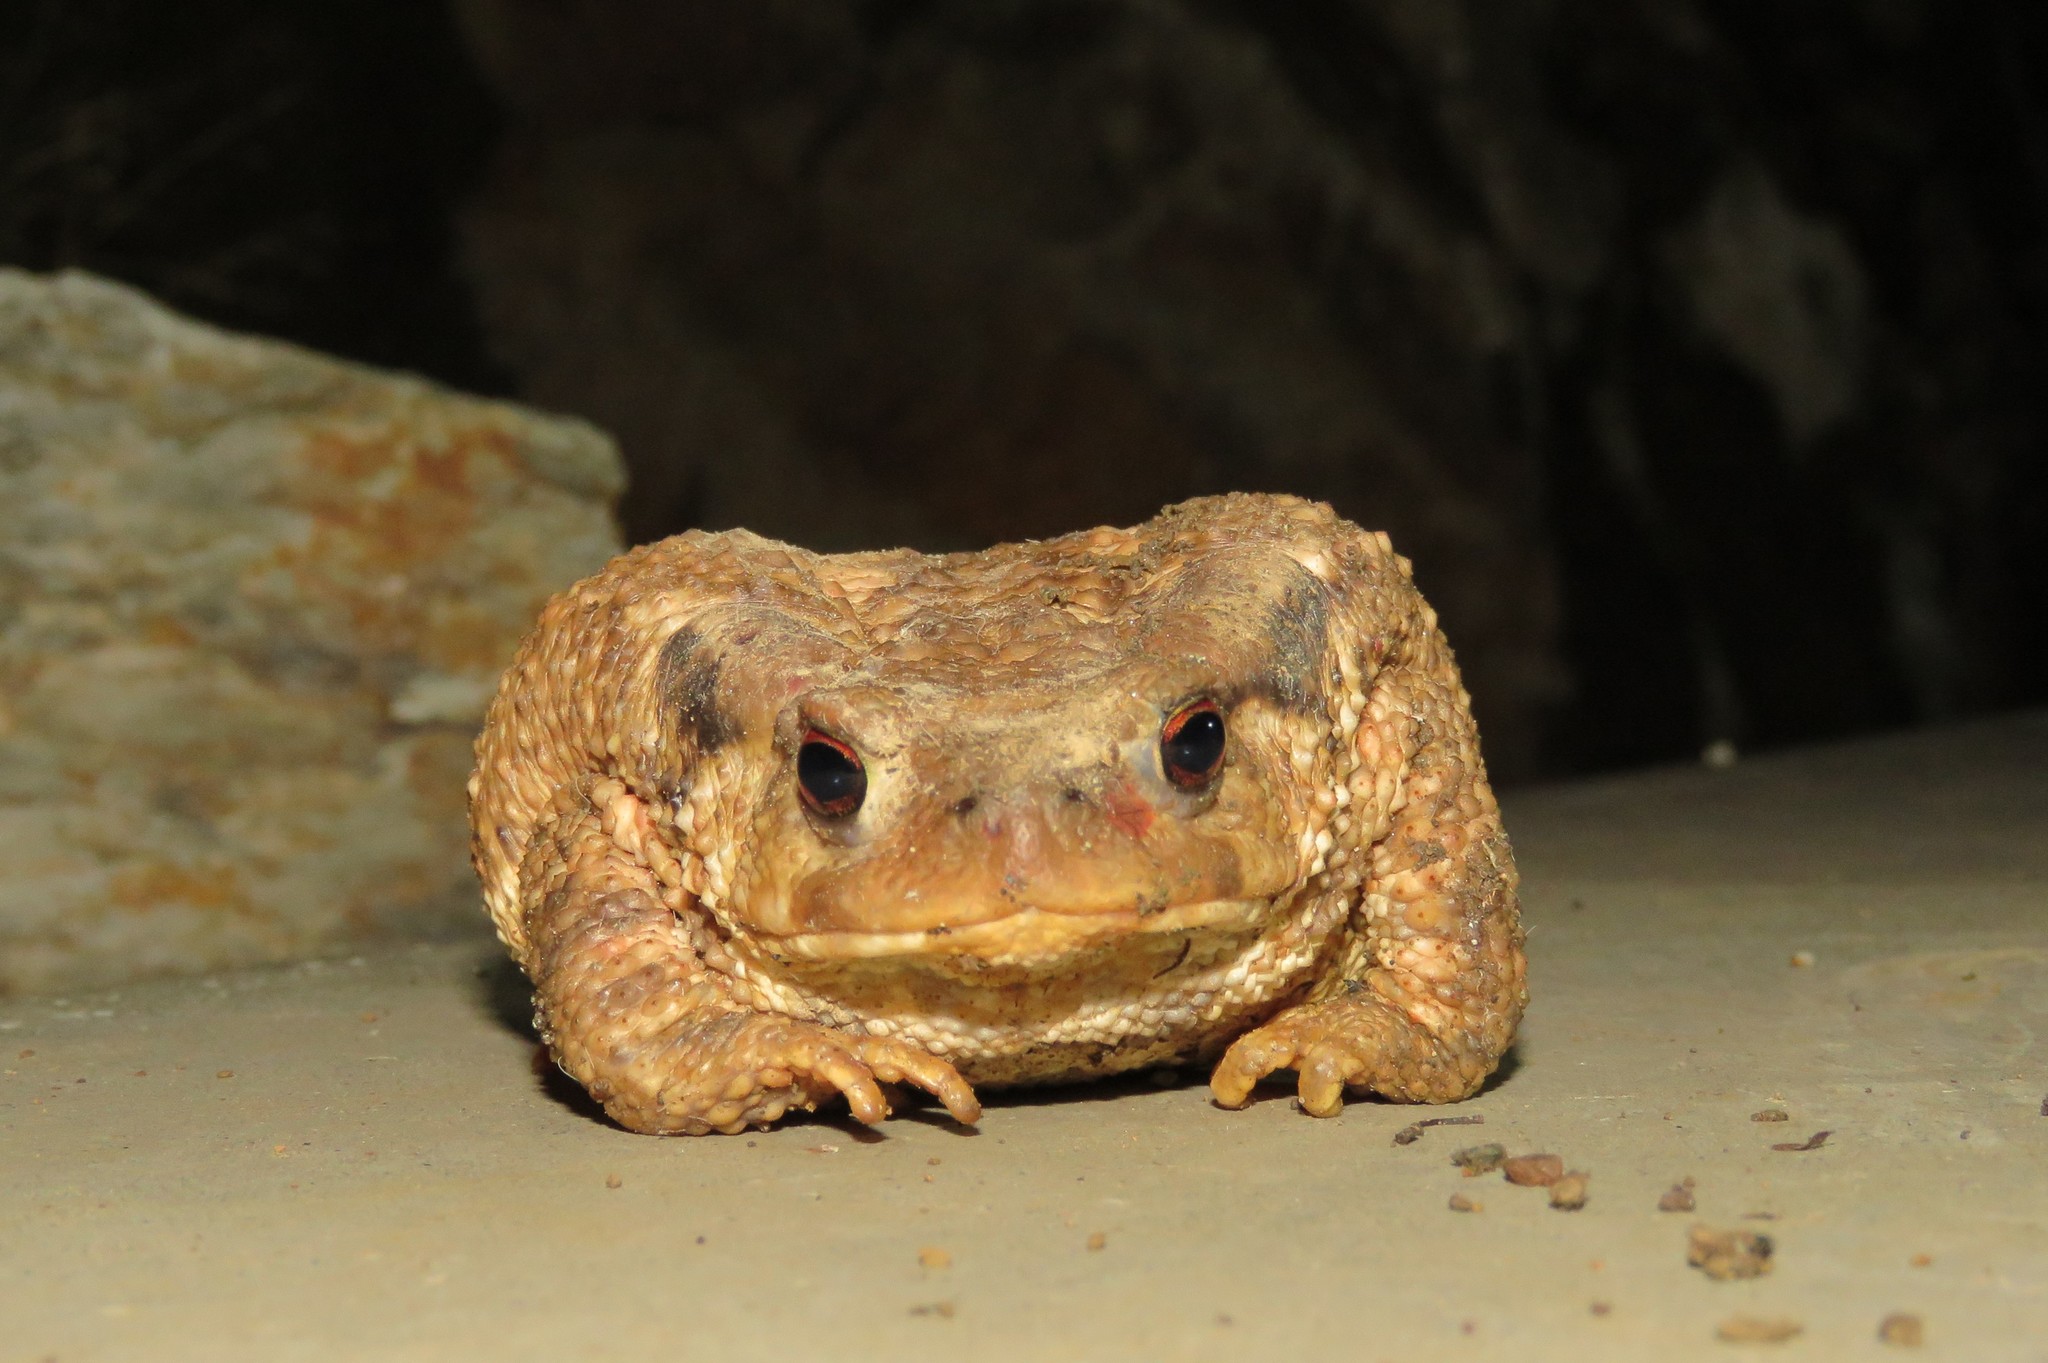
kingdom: Animalia
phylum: Chordata
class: Amphibia
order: Anura
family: Bufonidae
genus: Bufo
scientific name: Bufo spinosus
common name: Western common toad
